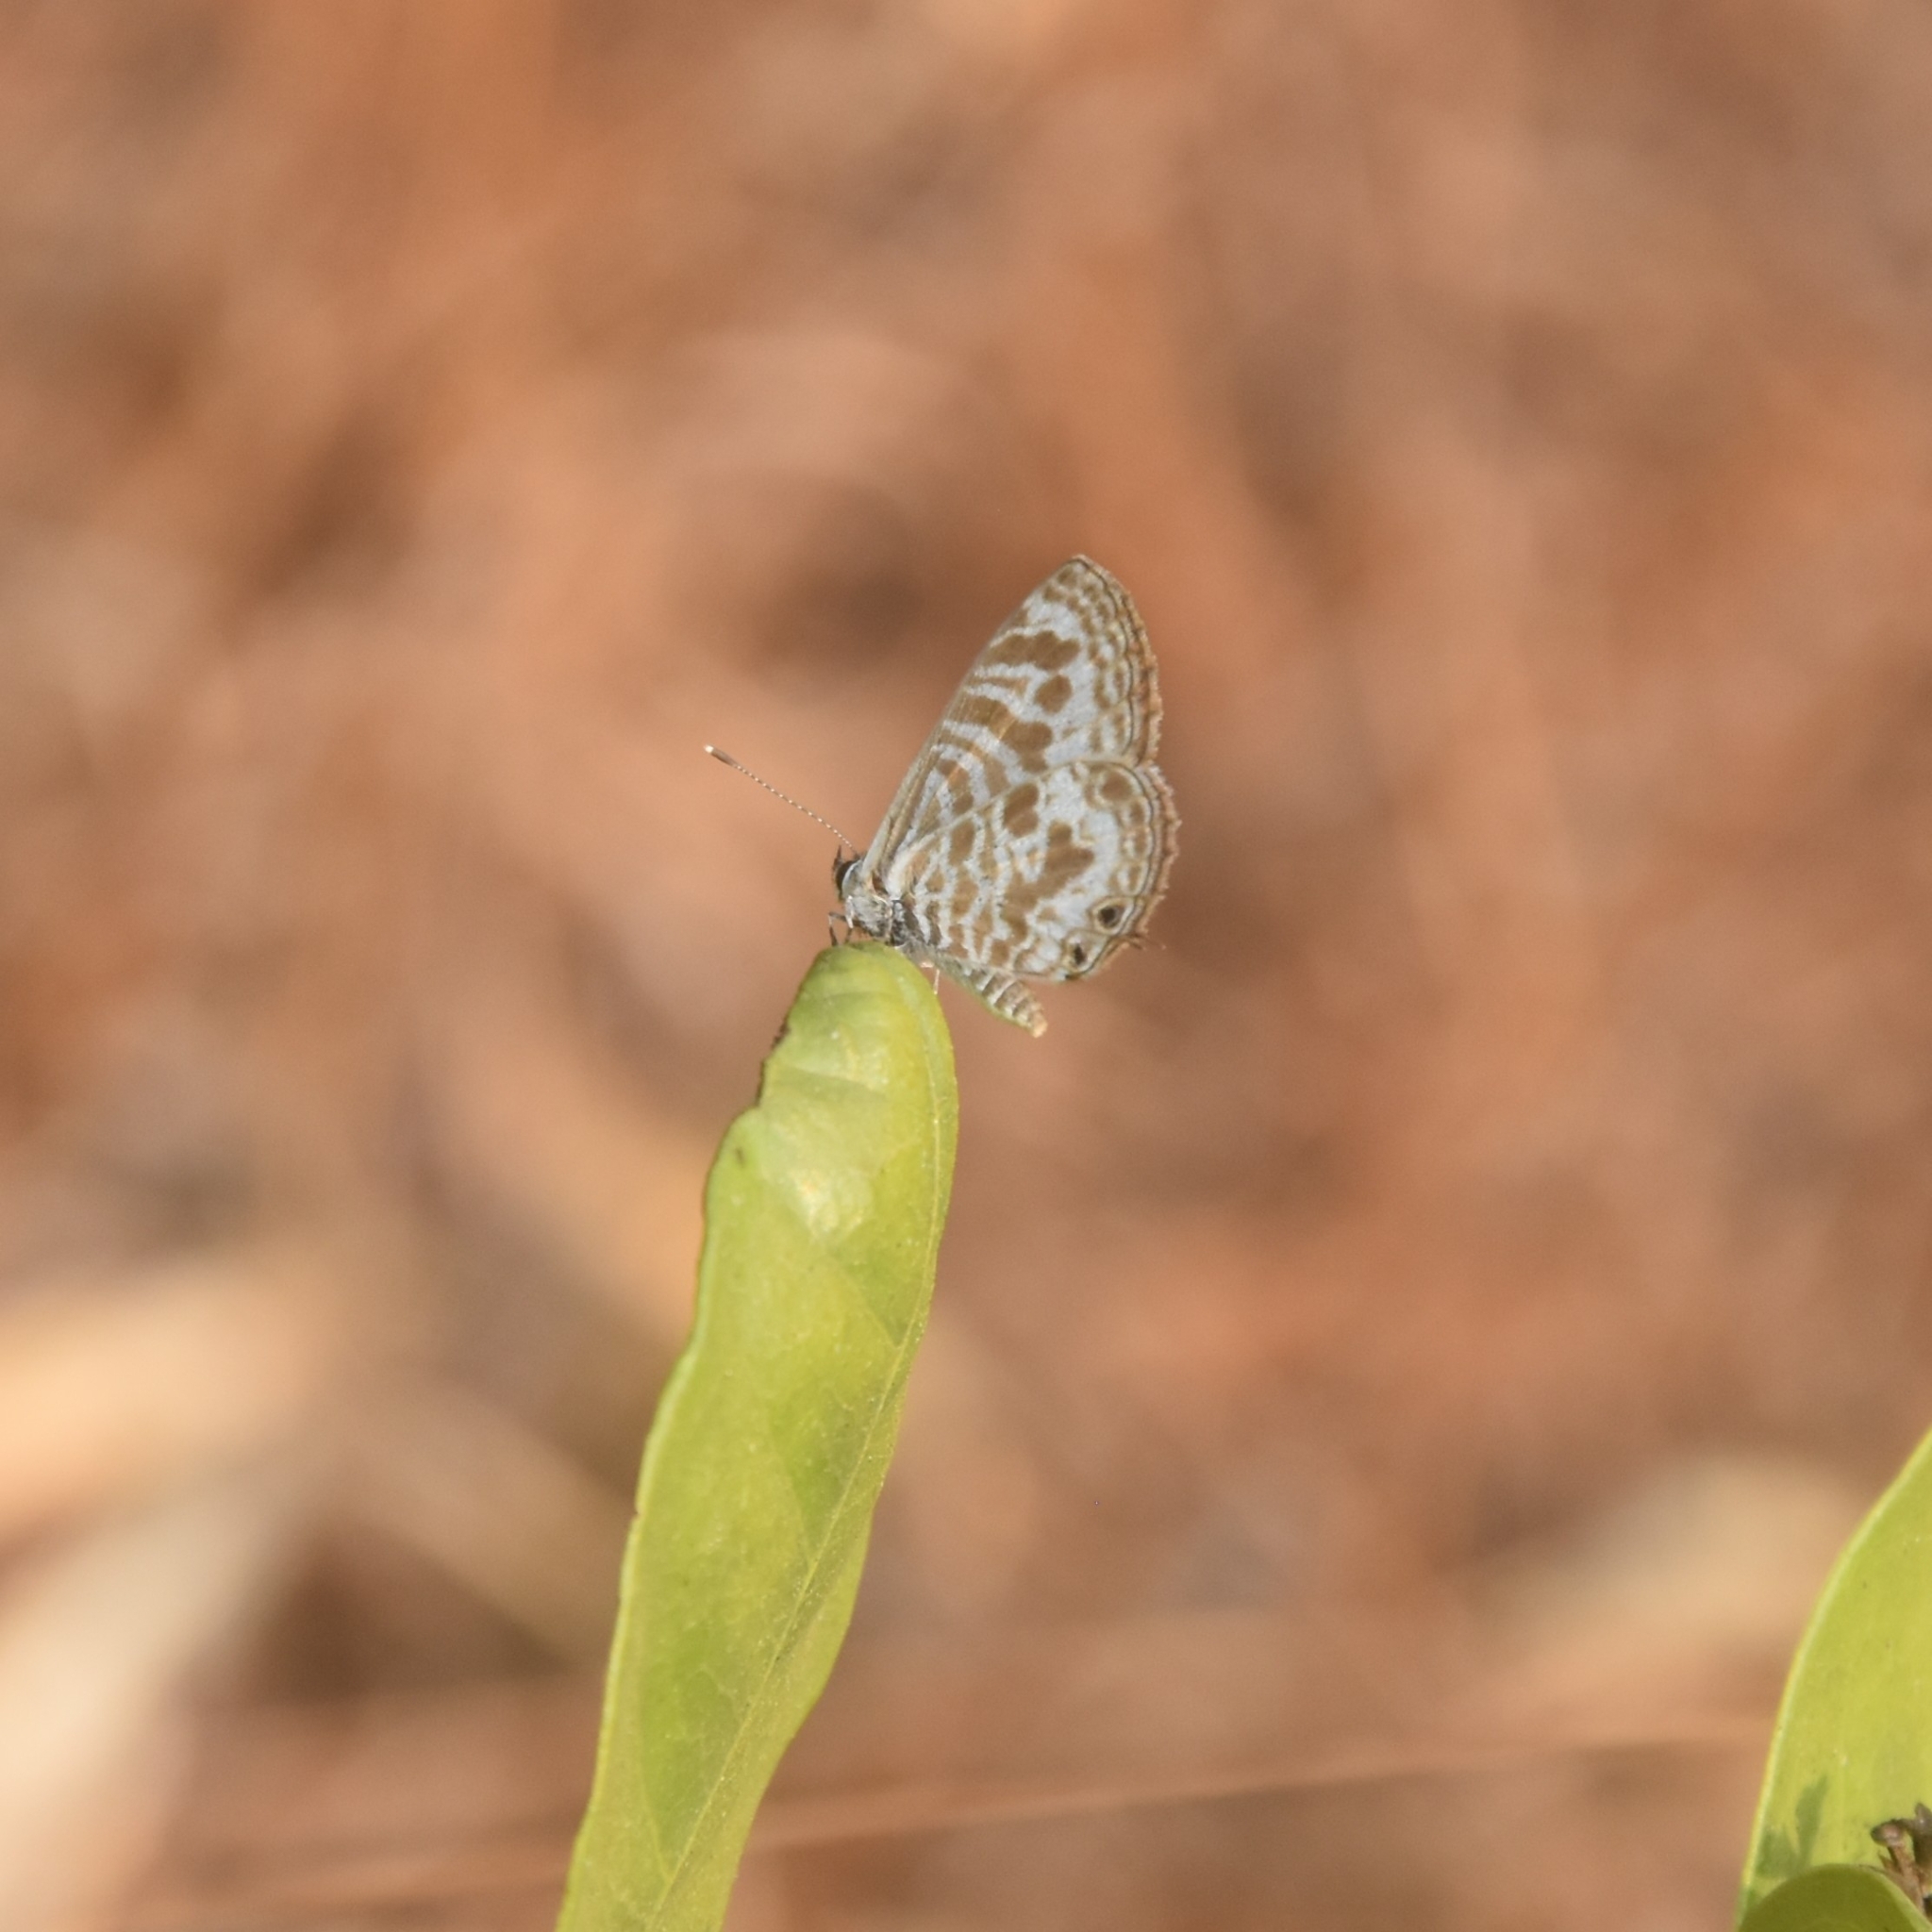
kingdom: Animalia
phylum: Arthropoda
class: Insecta
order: Lepidoptera
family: Lycaenidae
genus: Leptotes
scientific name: Leptotes plinius
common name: Zebra blue
